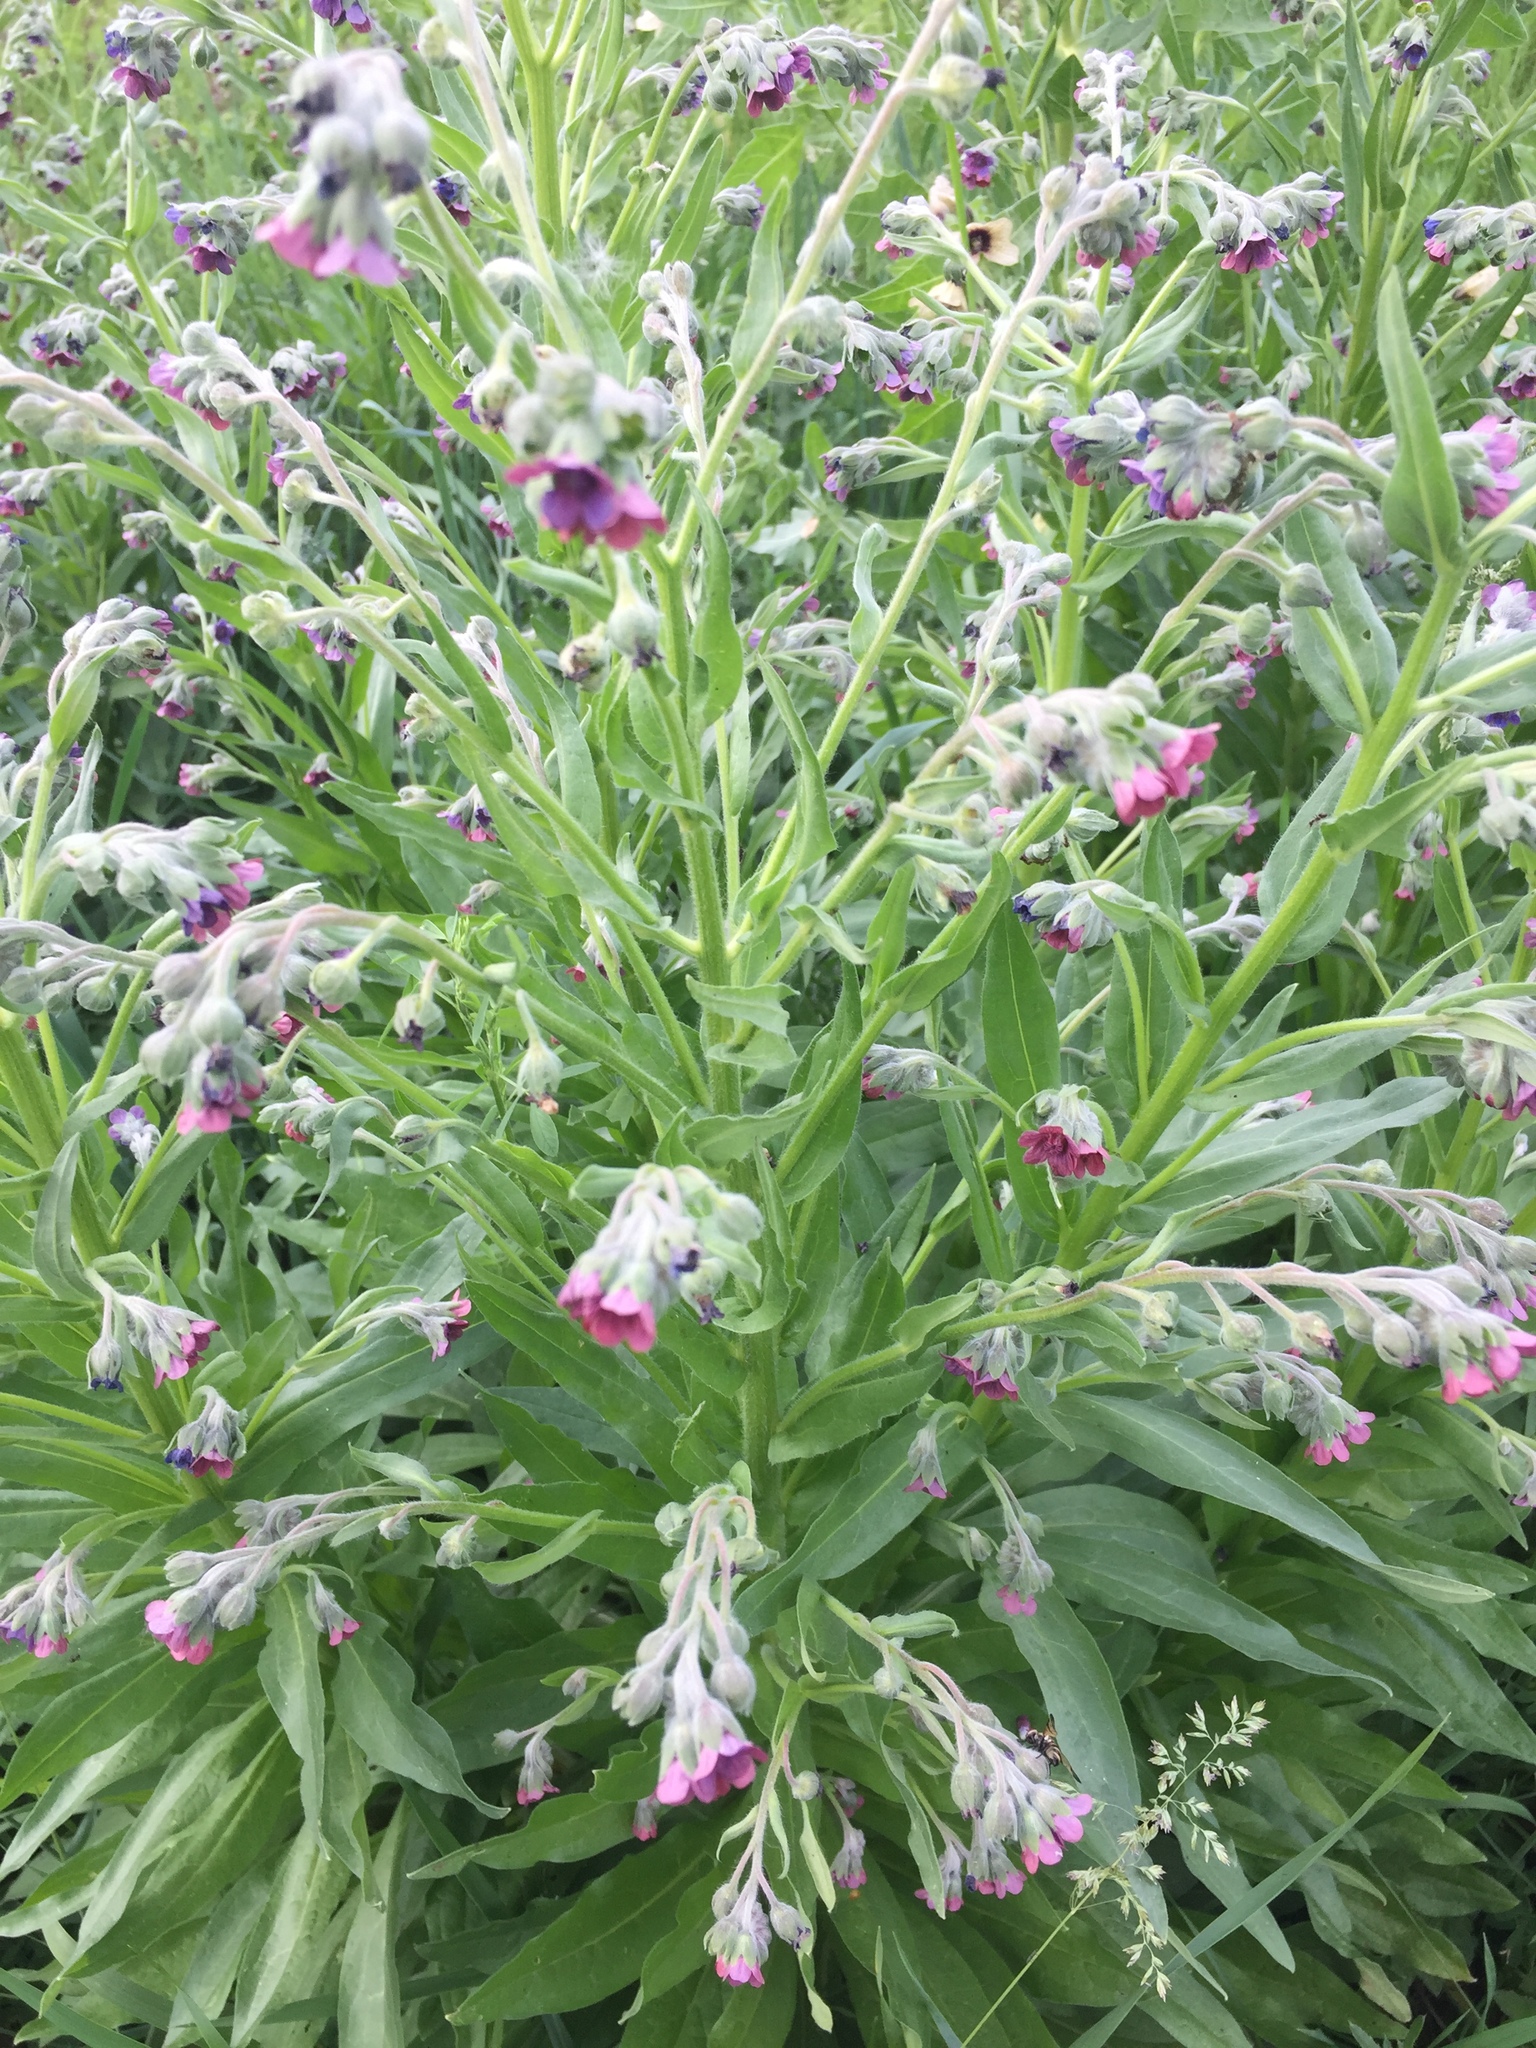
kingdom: Plantae
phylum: Tracheophyta
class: Magnoliopsida
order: Boraginales
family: Boraginaceae
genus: Cynoglossum
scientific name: Cynoglossum officinale
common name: Hound's-tongue
